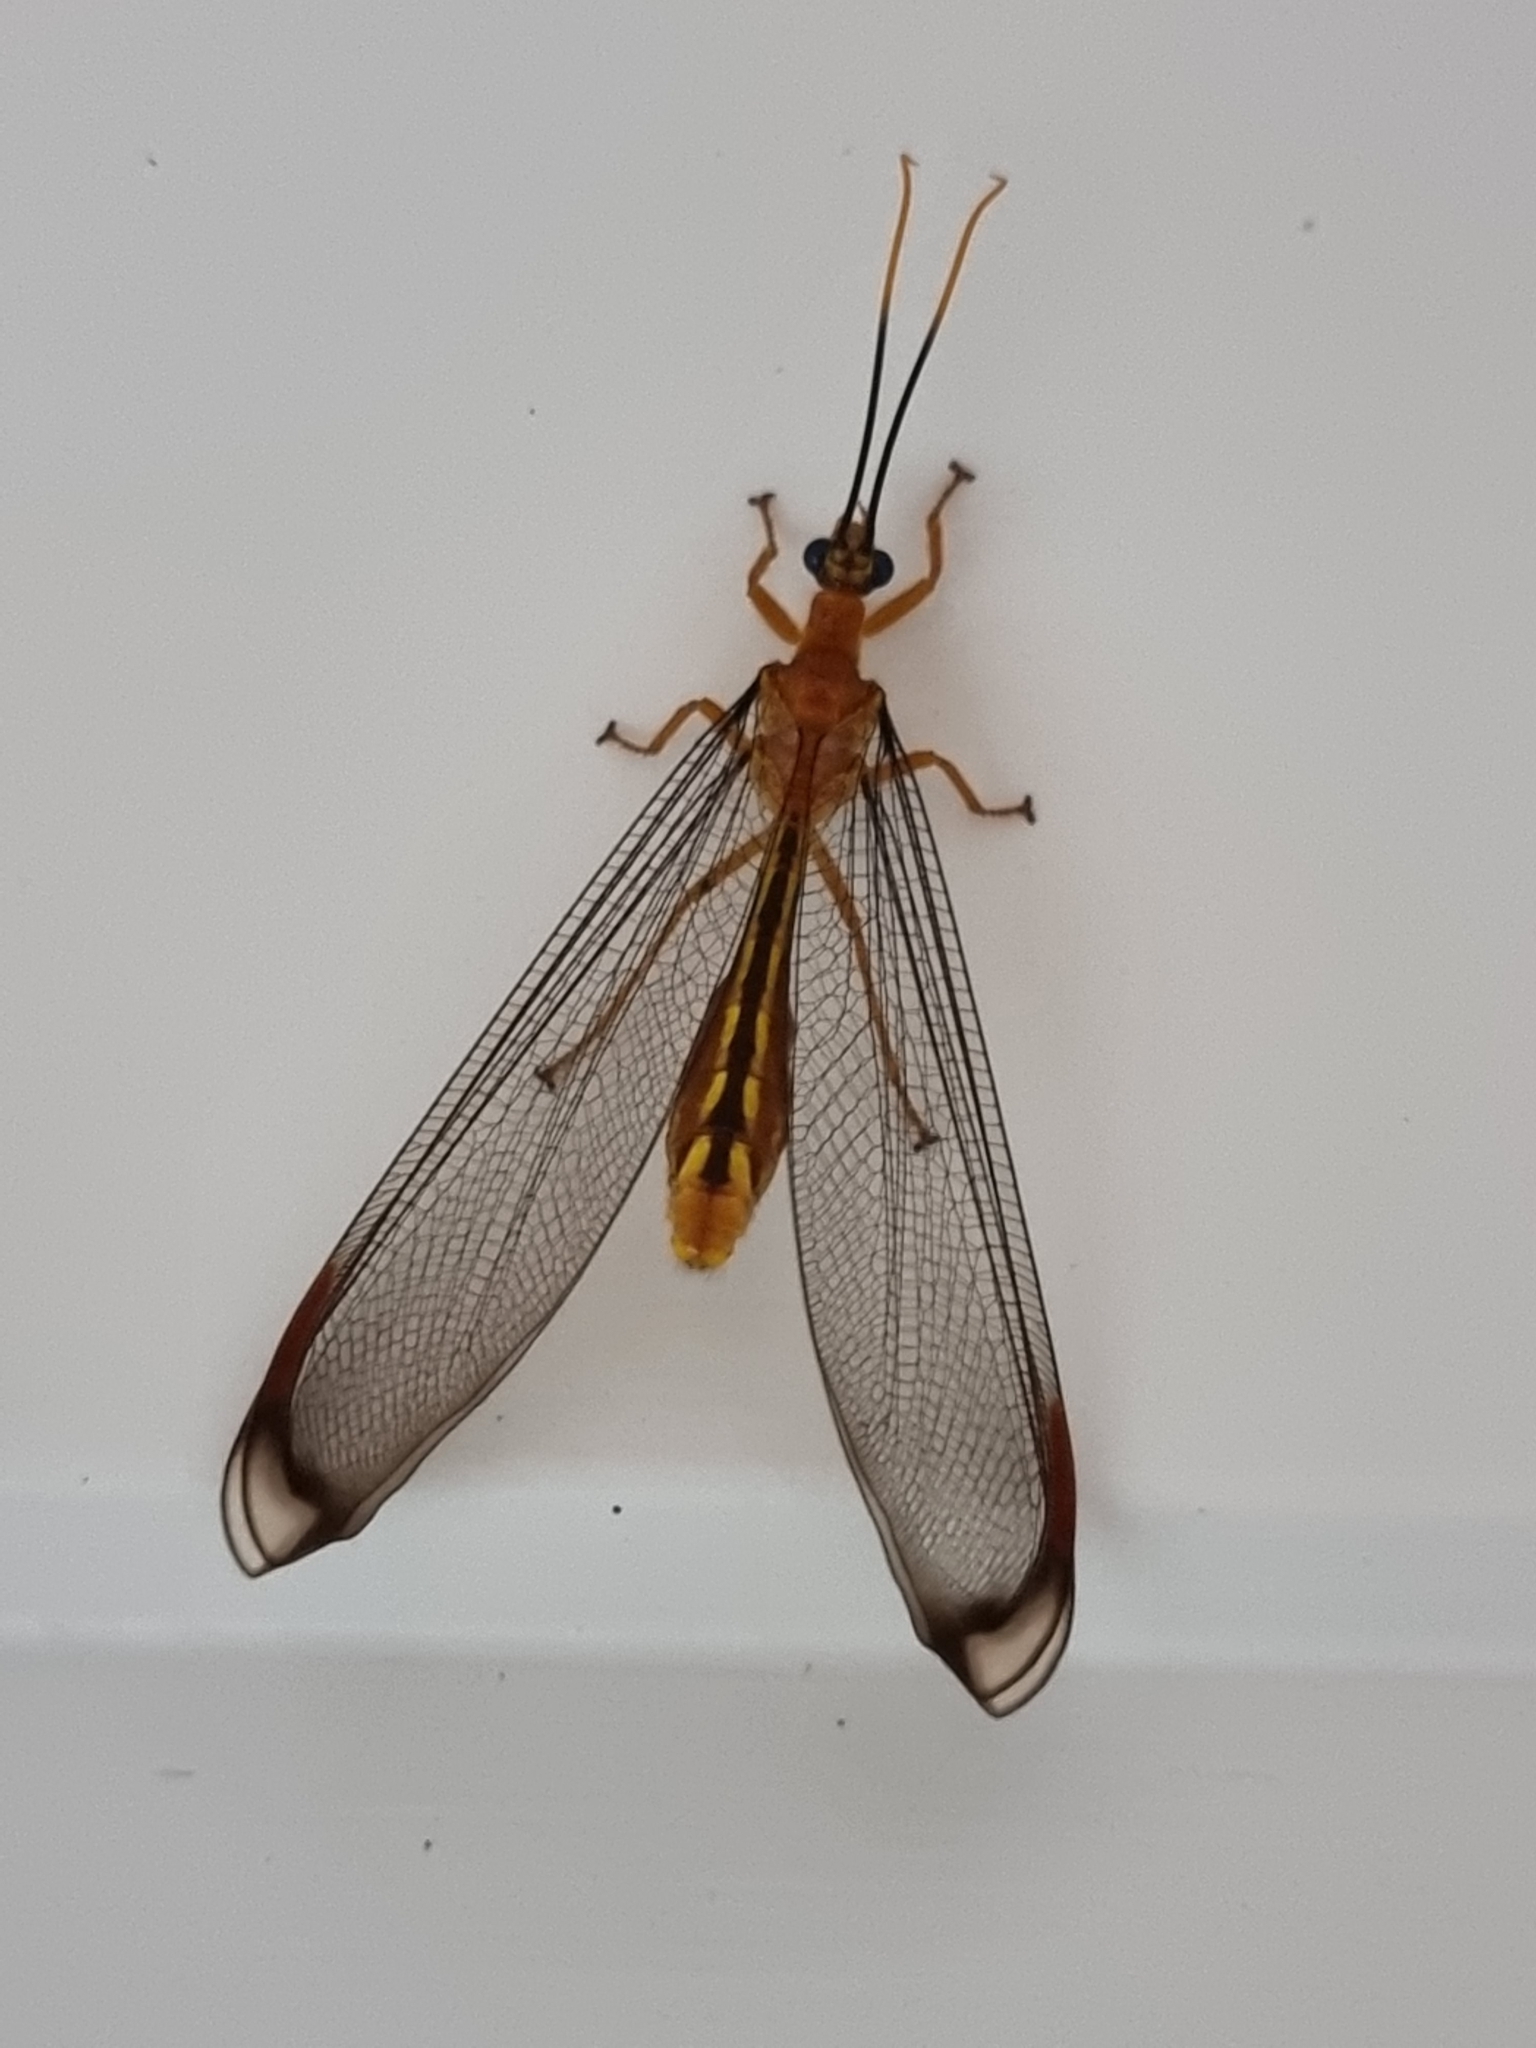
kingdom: Animalia
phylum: Arthropoda
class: Insecta
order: Neuroptera
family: Nymphidae
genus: Nymphes
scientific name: Nymphes myrmeleonoides
